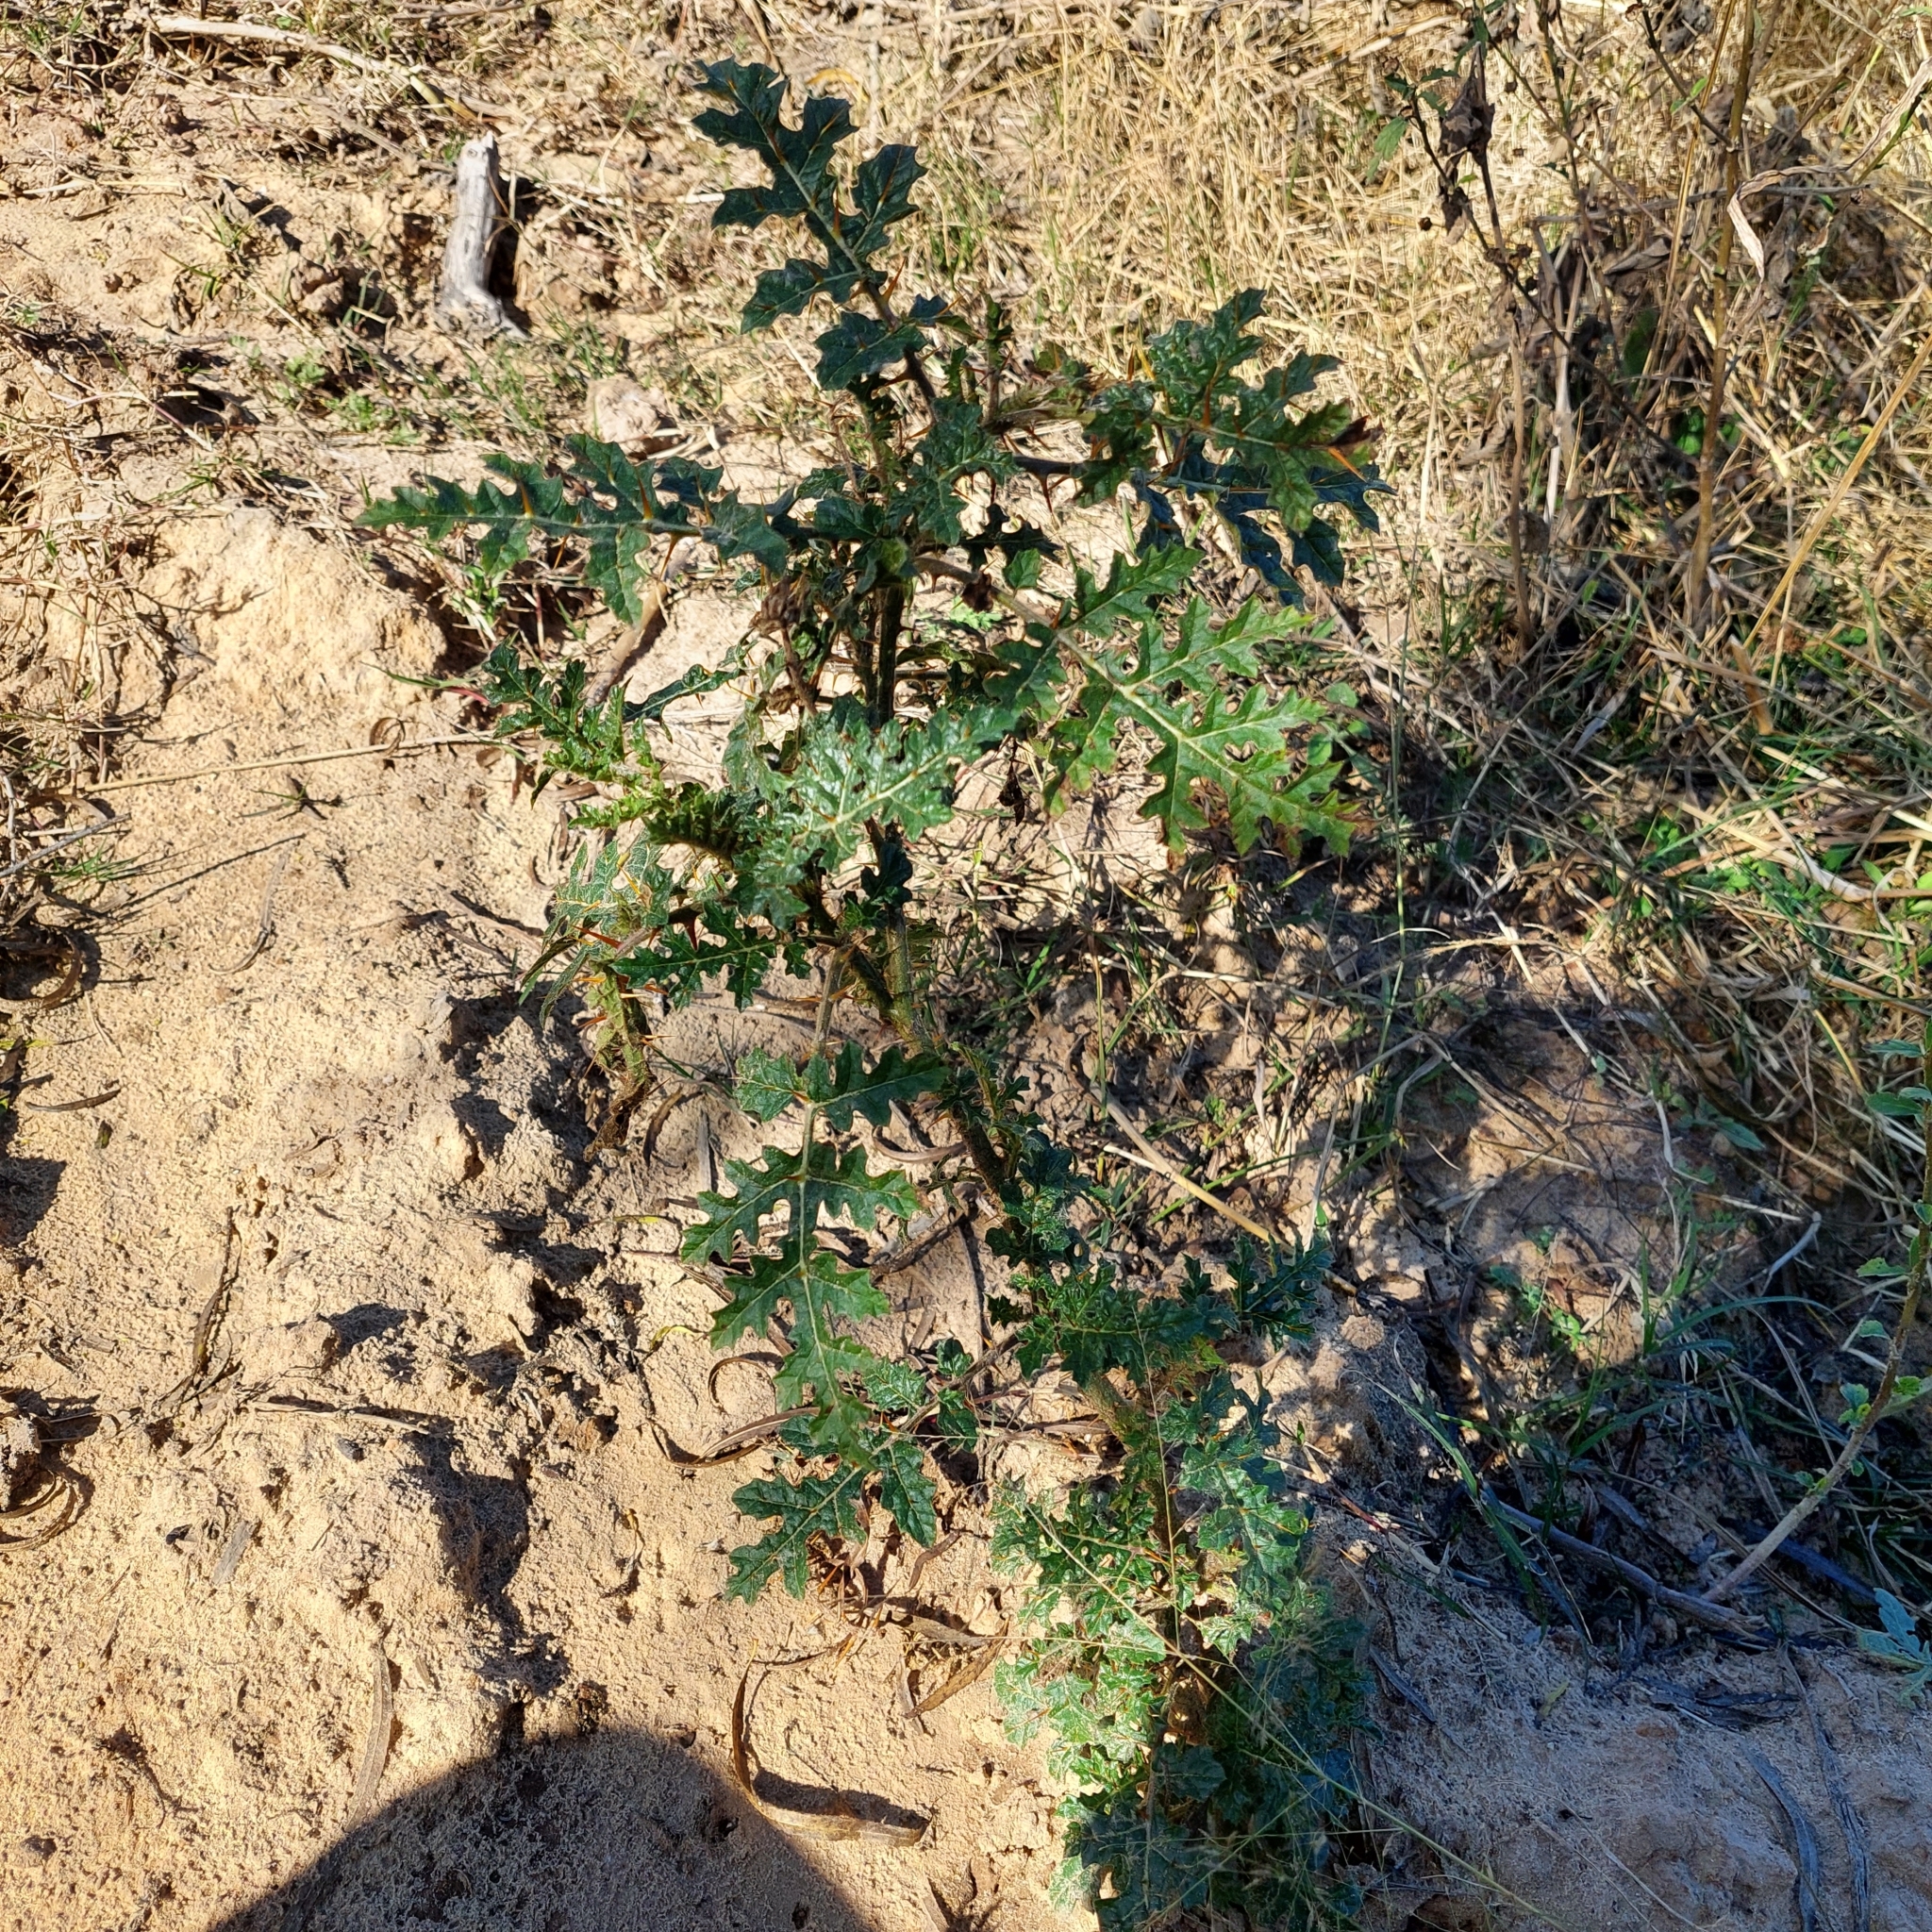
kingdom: Plantae
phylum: Tracheophyta
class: Magnoliopsida
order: Solanales
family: Solanaceae
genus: Solanum
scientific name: Solanum sisymbriifolium
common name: Red buffalo-bur
